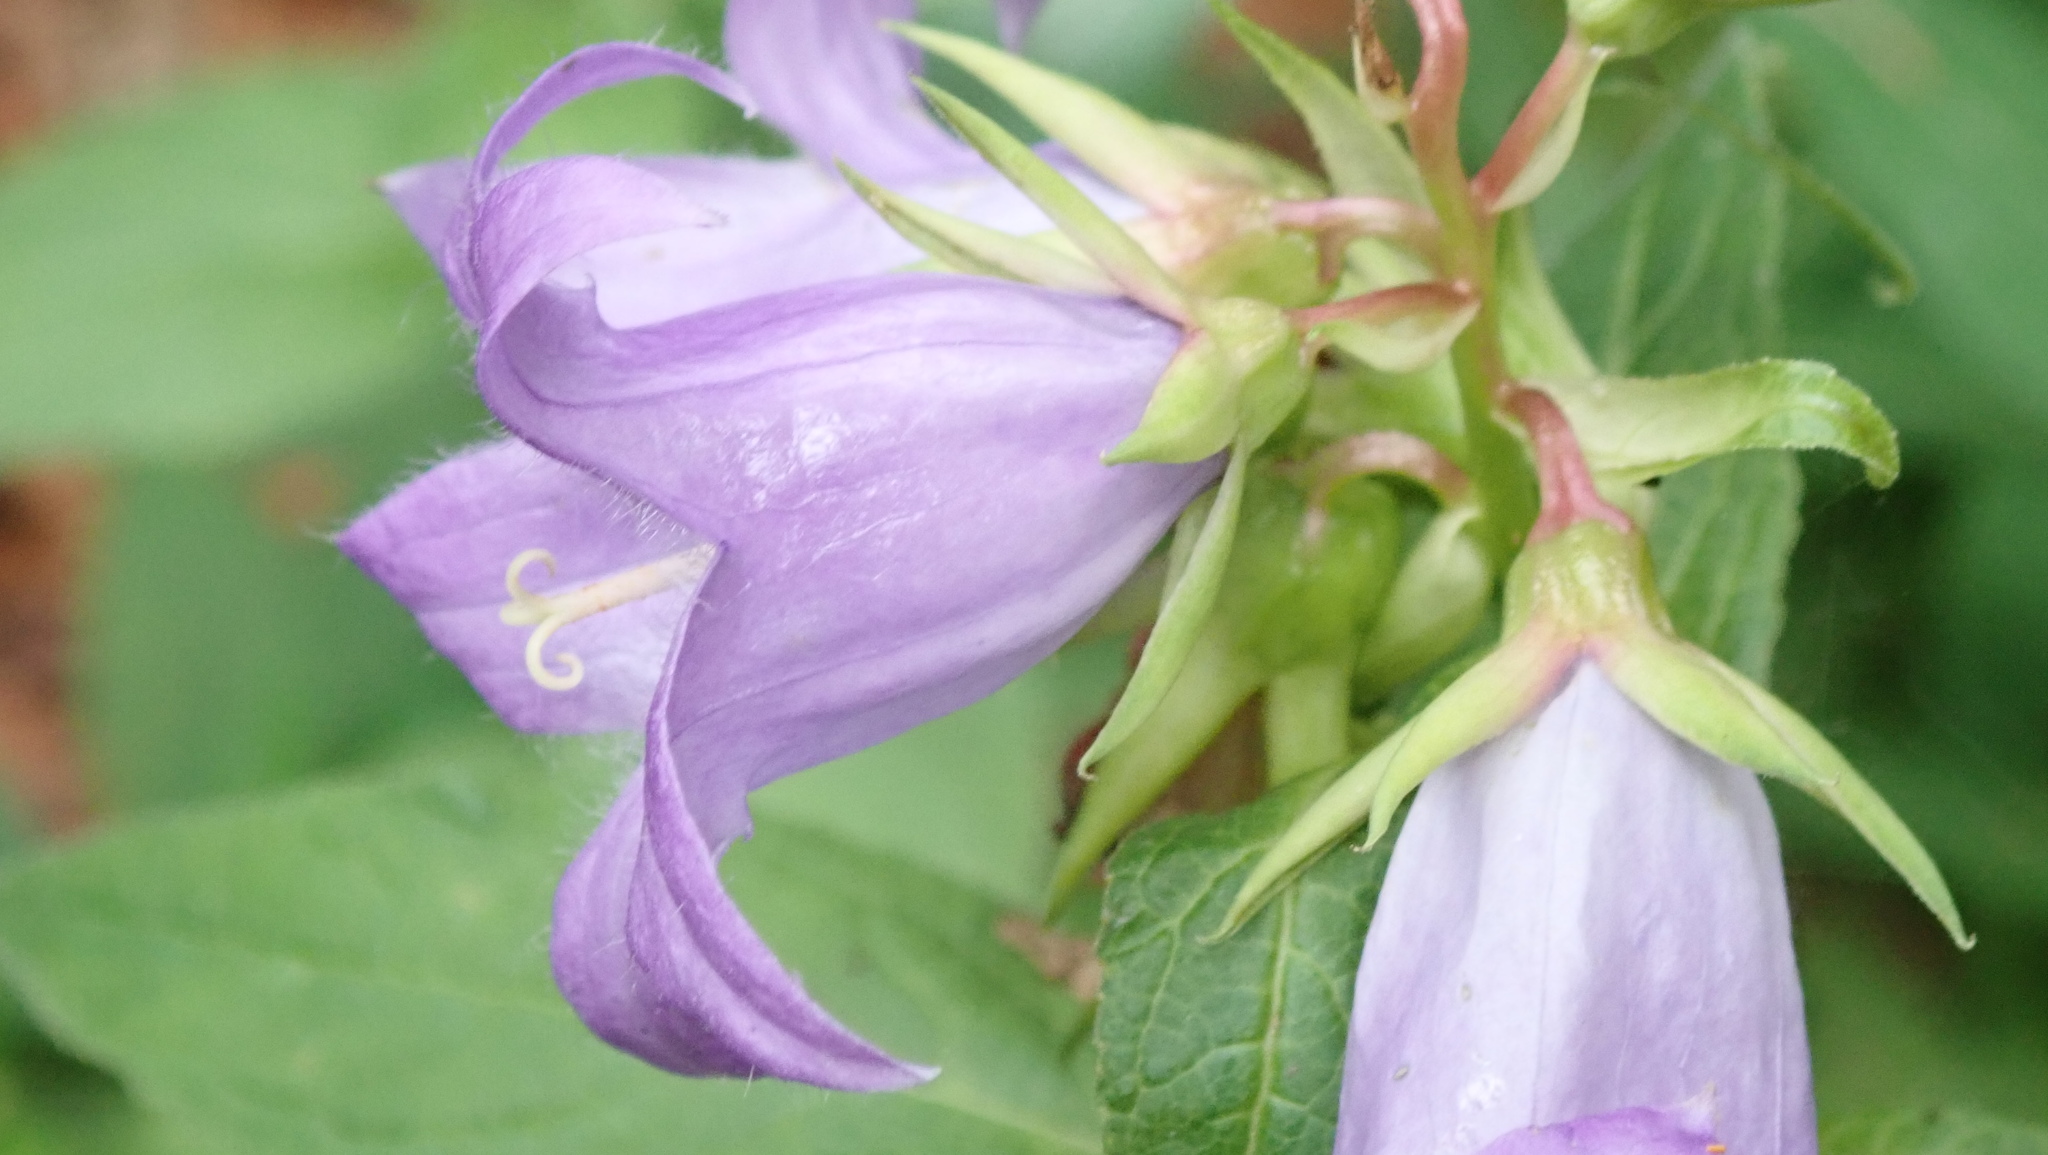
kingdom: Plantae
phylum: Tracheophyta
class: Magnoliopsida
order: Asterales
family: Campanulaceae
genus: Campanula
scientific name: Campanula latifolia
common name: Giant bellflower
